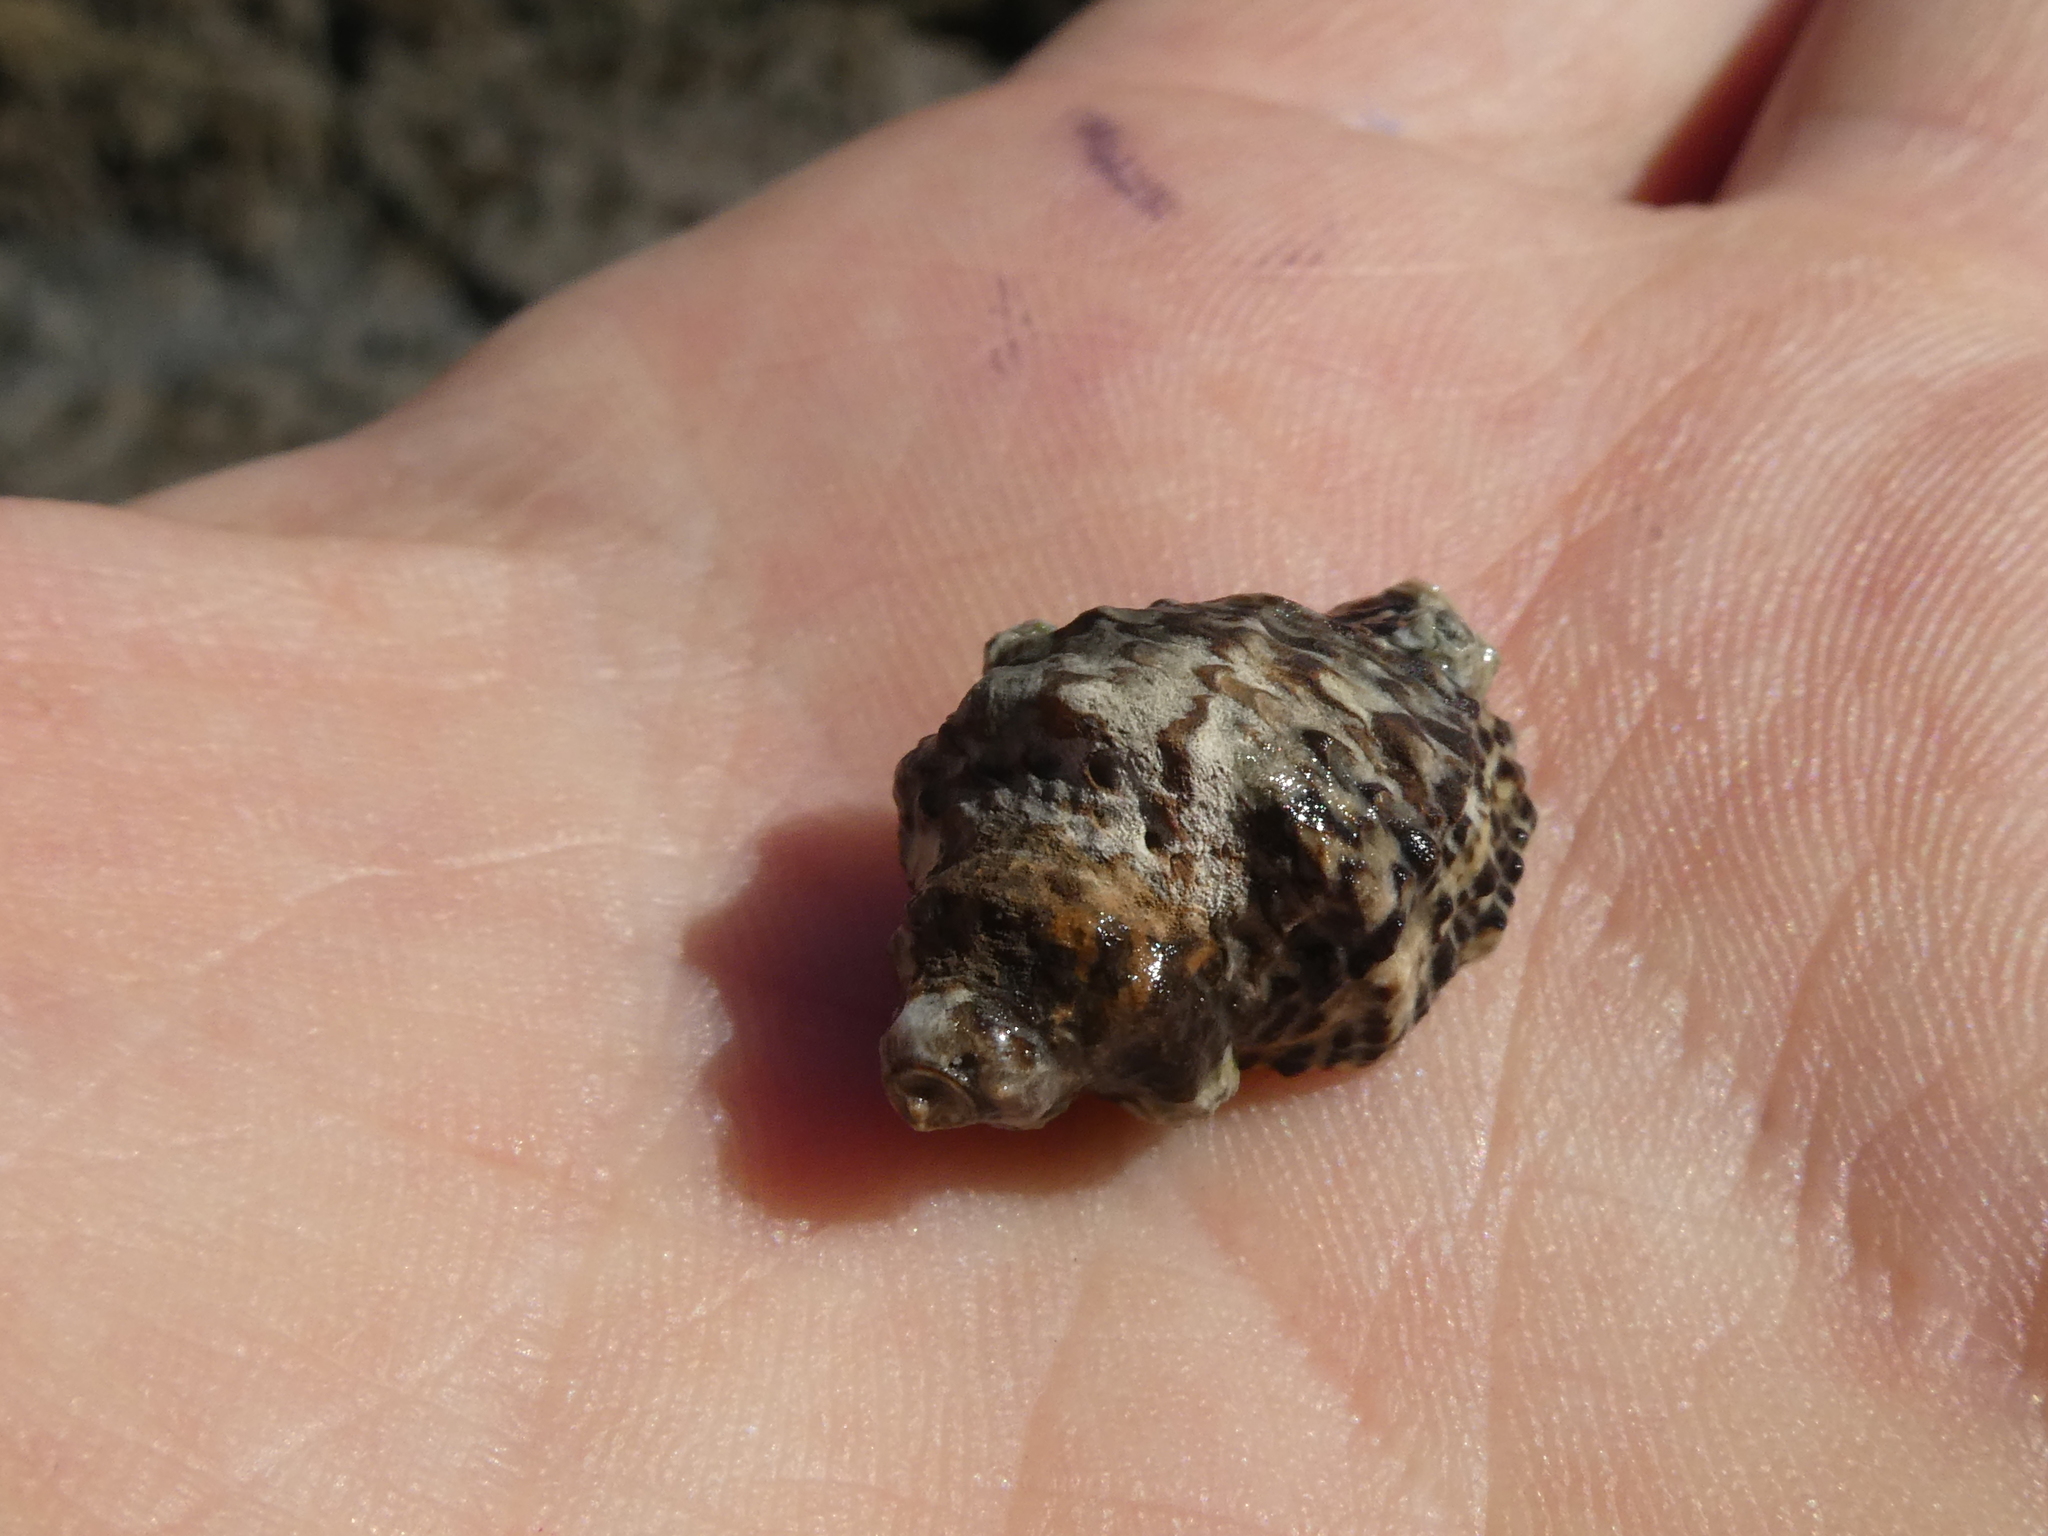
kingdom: Animalia
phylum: Mollusca
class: Gastropoda
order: Neogastropoda
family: Muricidae
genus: Haustrum
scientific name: Haustrum scobina
